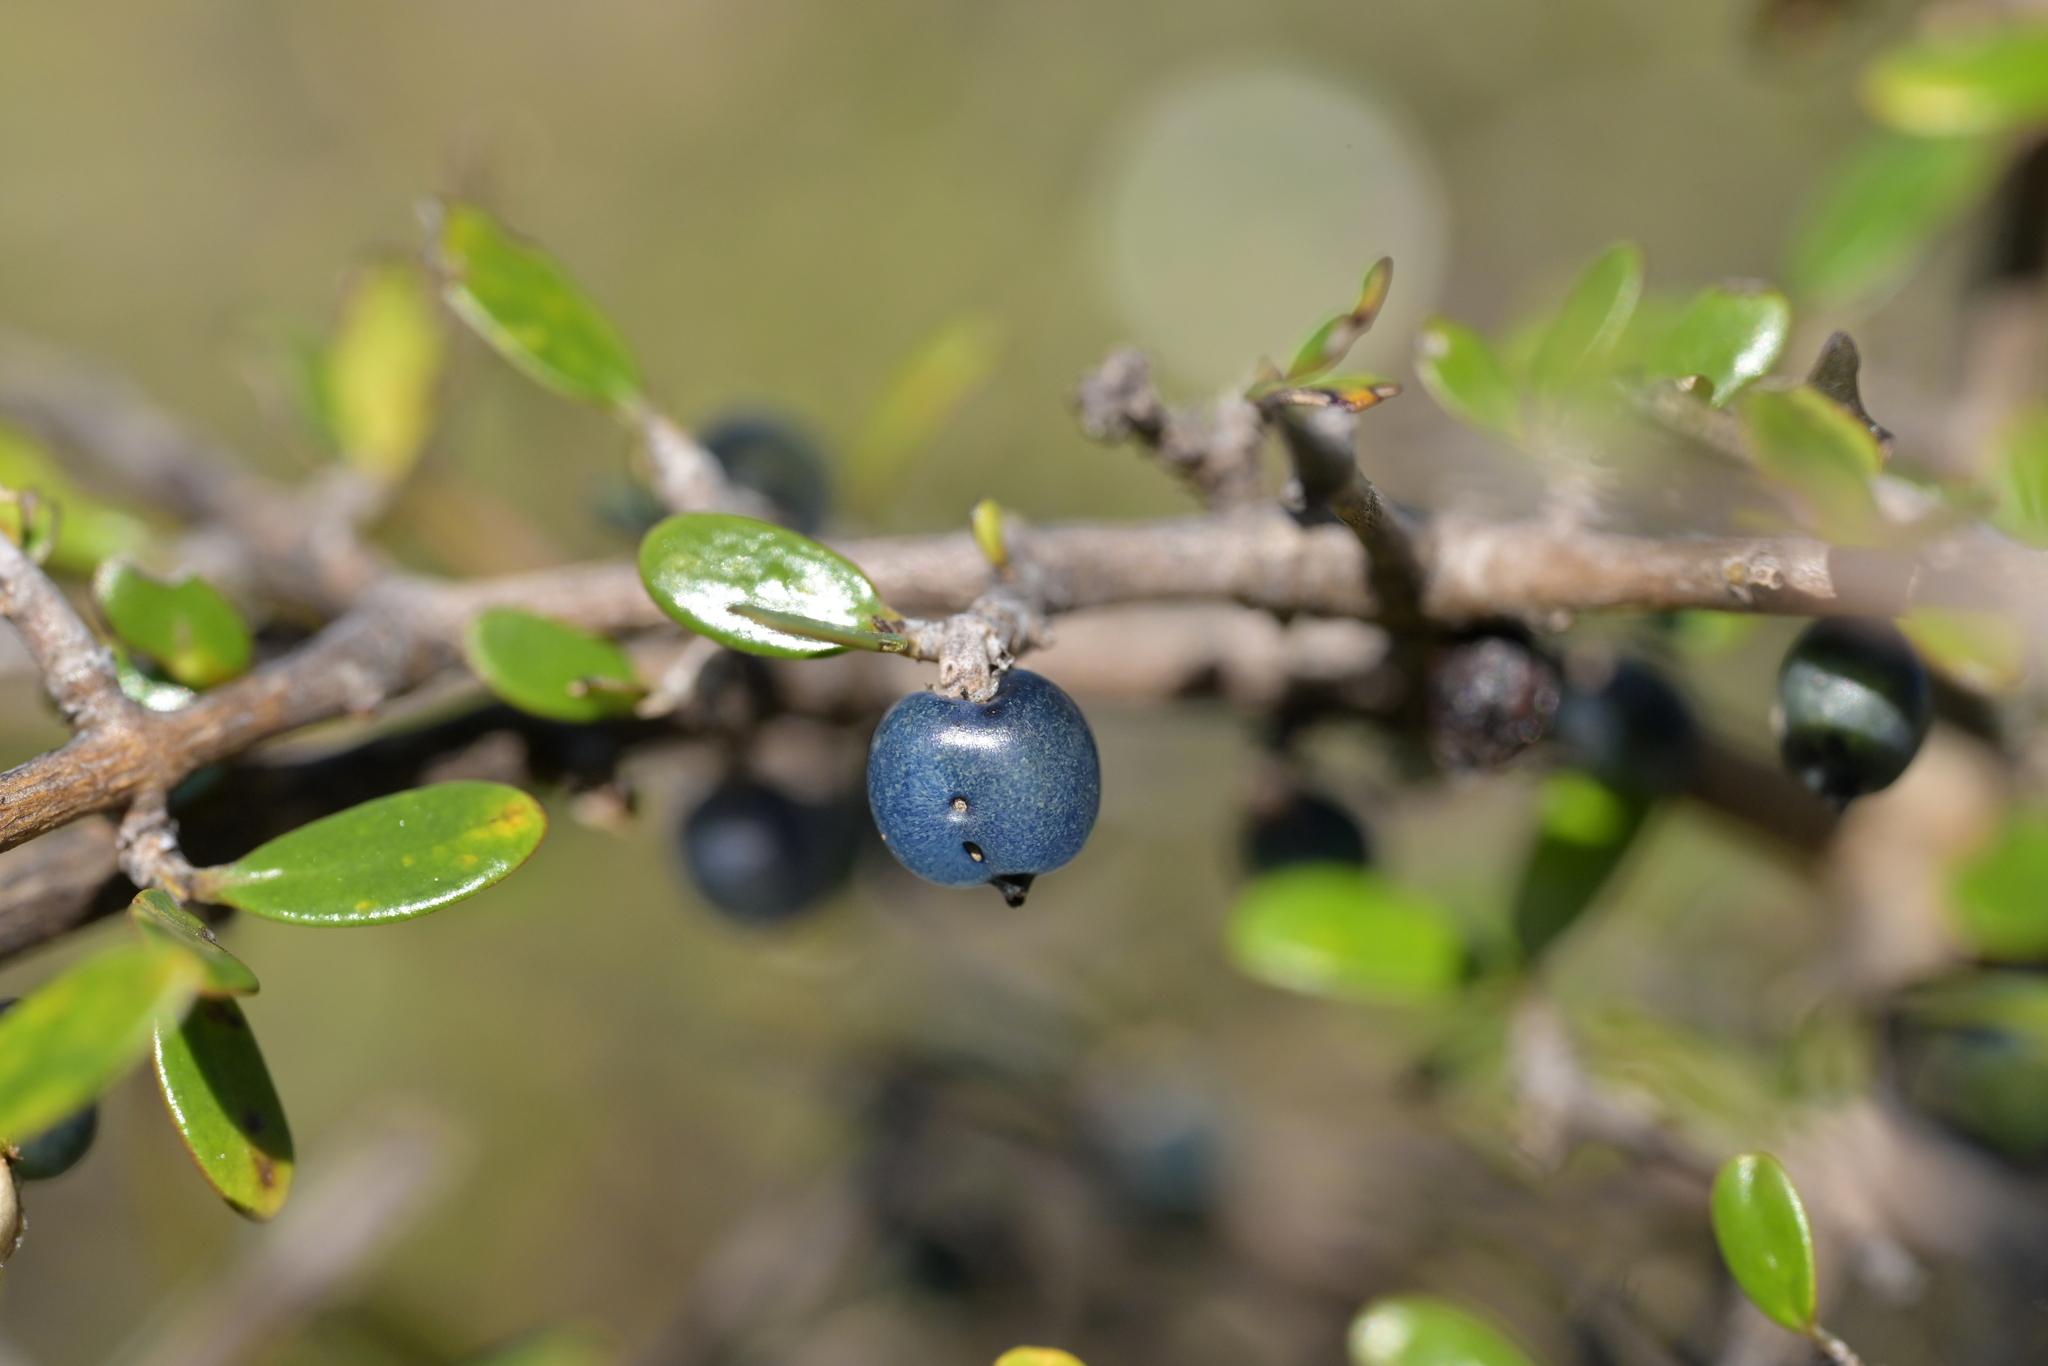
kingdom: Plantae
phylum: Tracheophyta
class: Magnoliopsida
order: Gentianales
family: Rubiaceae
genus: Coprosma
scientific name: Coprosma propinqua
